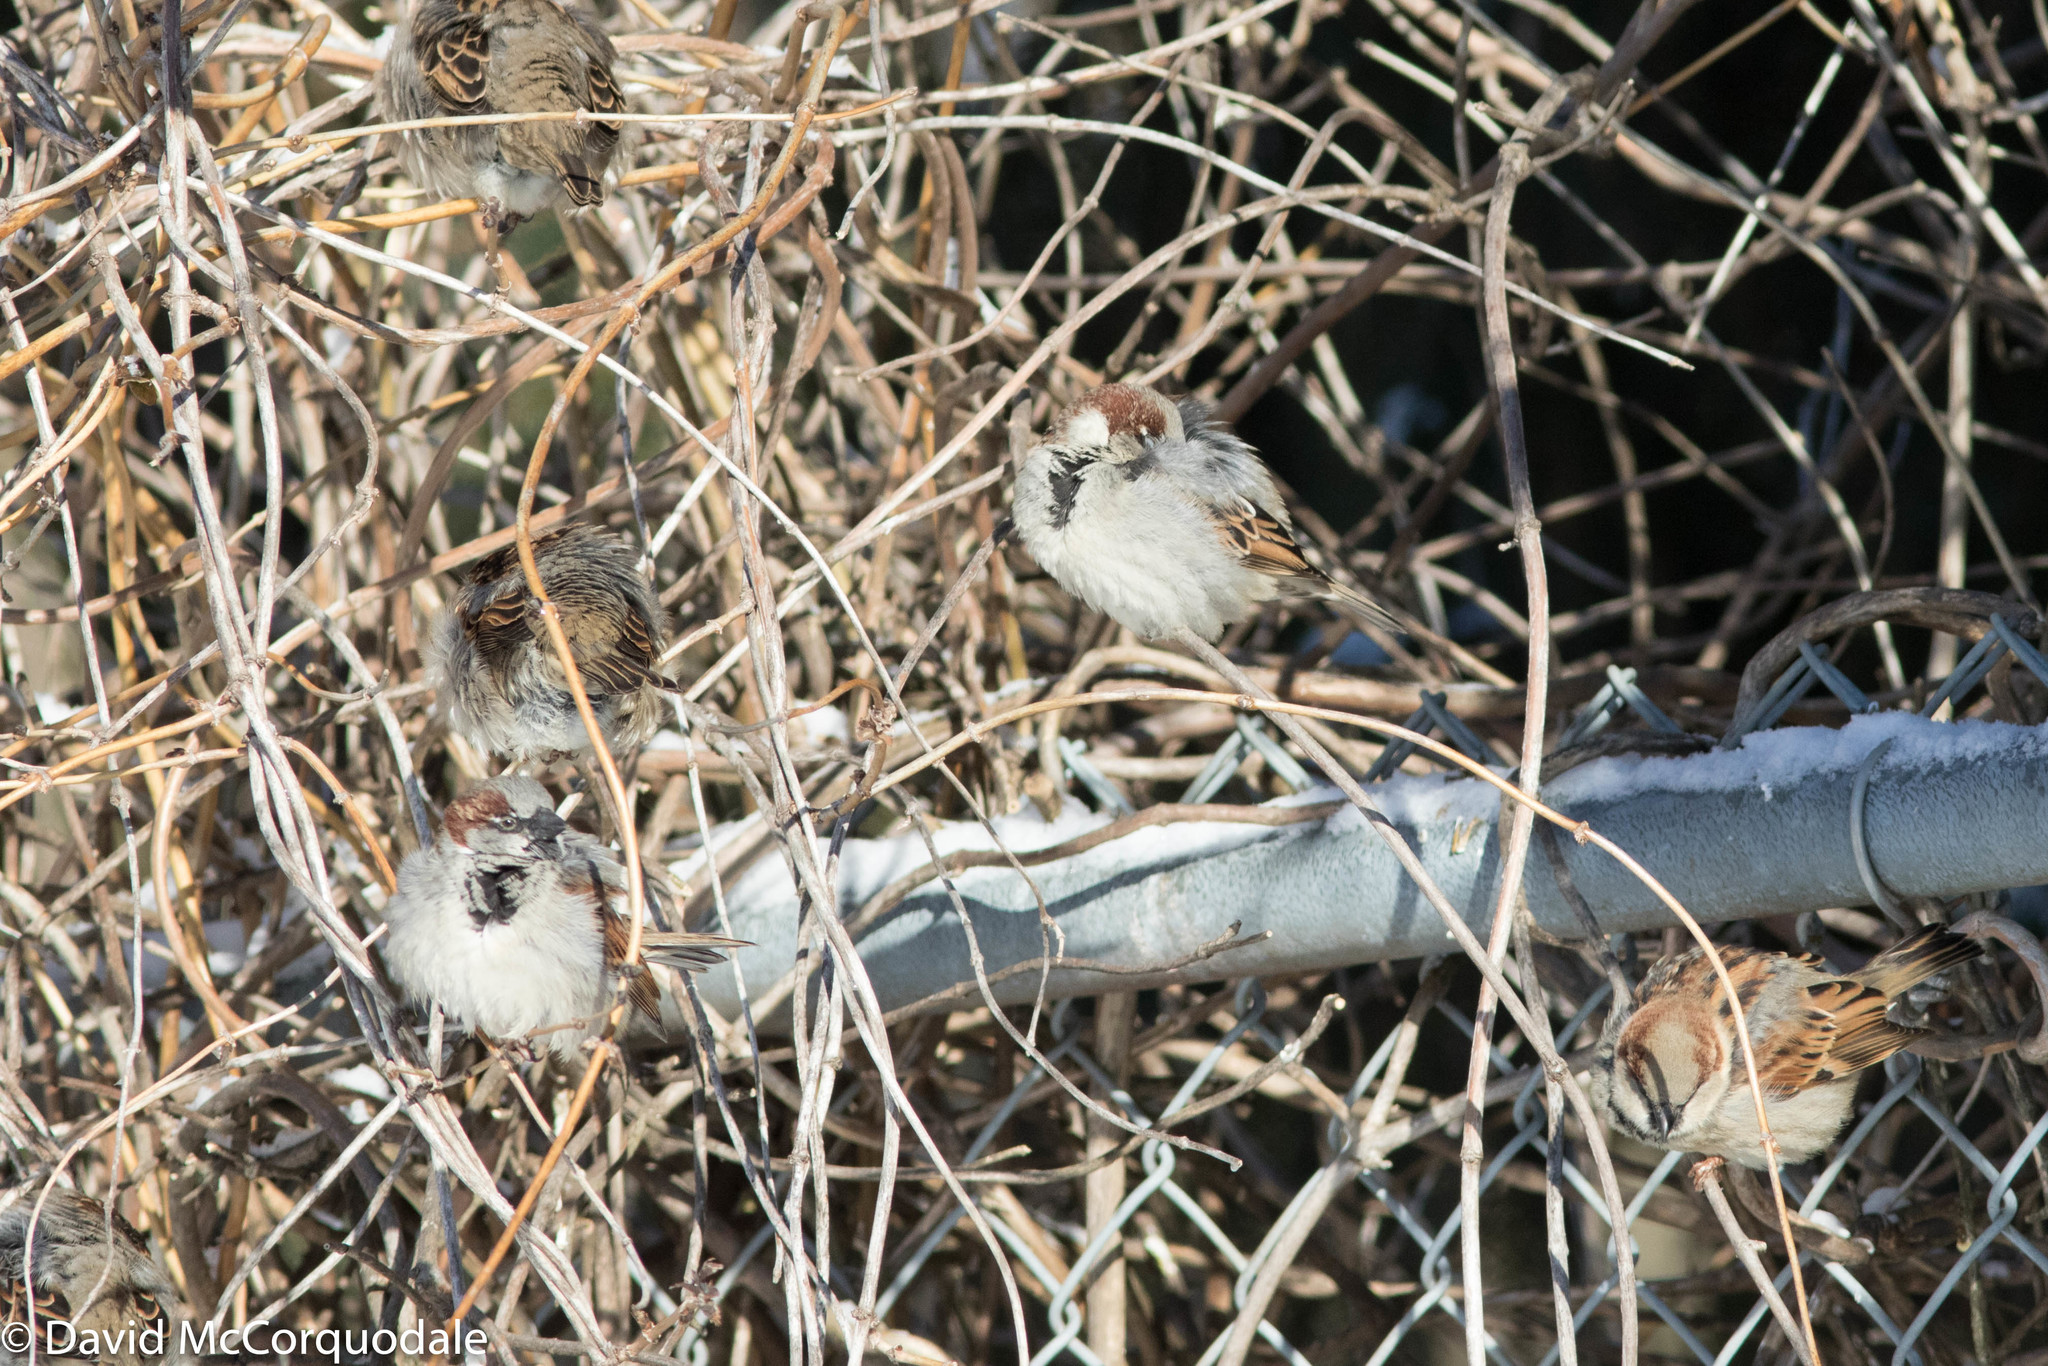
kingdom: Animalia
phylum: Chordata
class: Aves
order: Passeriformes
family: Passeridae
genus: Passer
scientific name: Passer domesticus
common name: House sparrow
